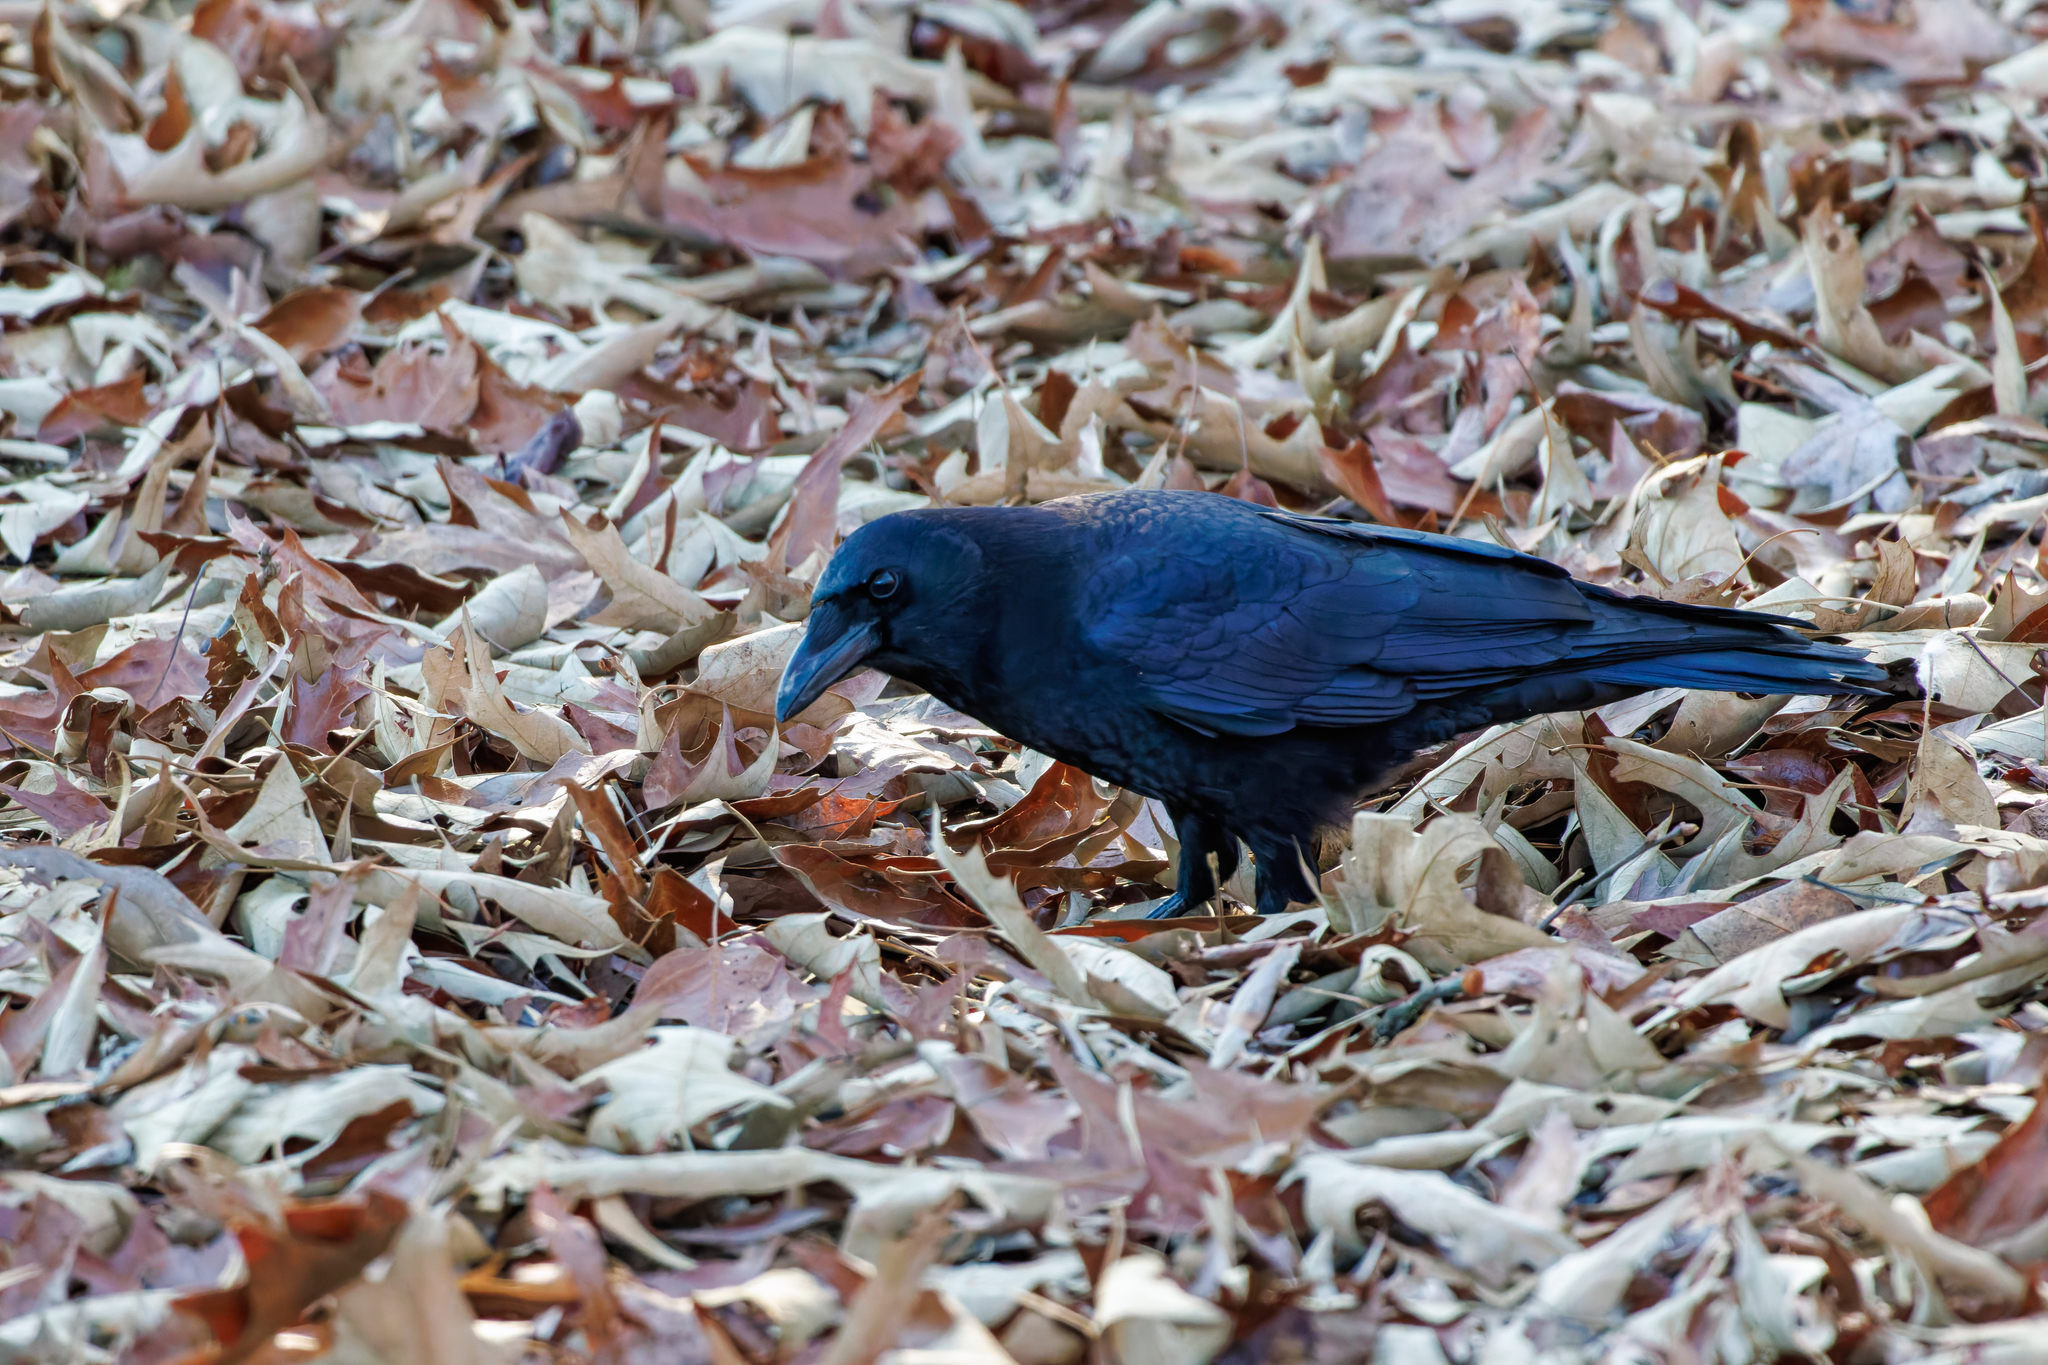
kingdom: Animalia
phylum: Chordata
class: Aves
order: Passeriformes
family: Corvidae
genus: Corvus
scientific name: Corvus brachyrhynchos
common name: American crow
